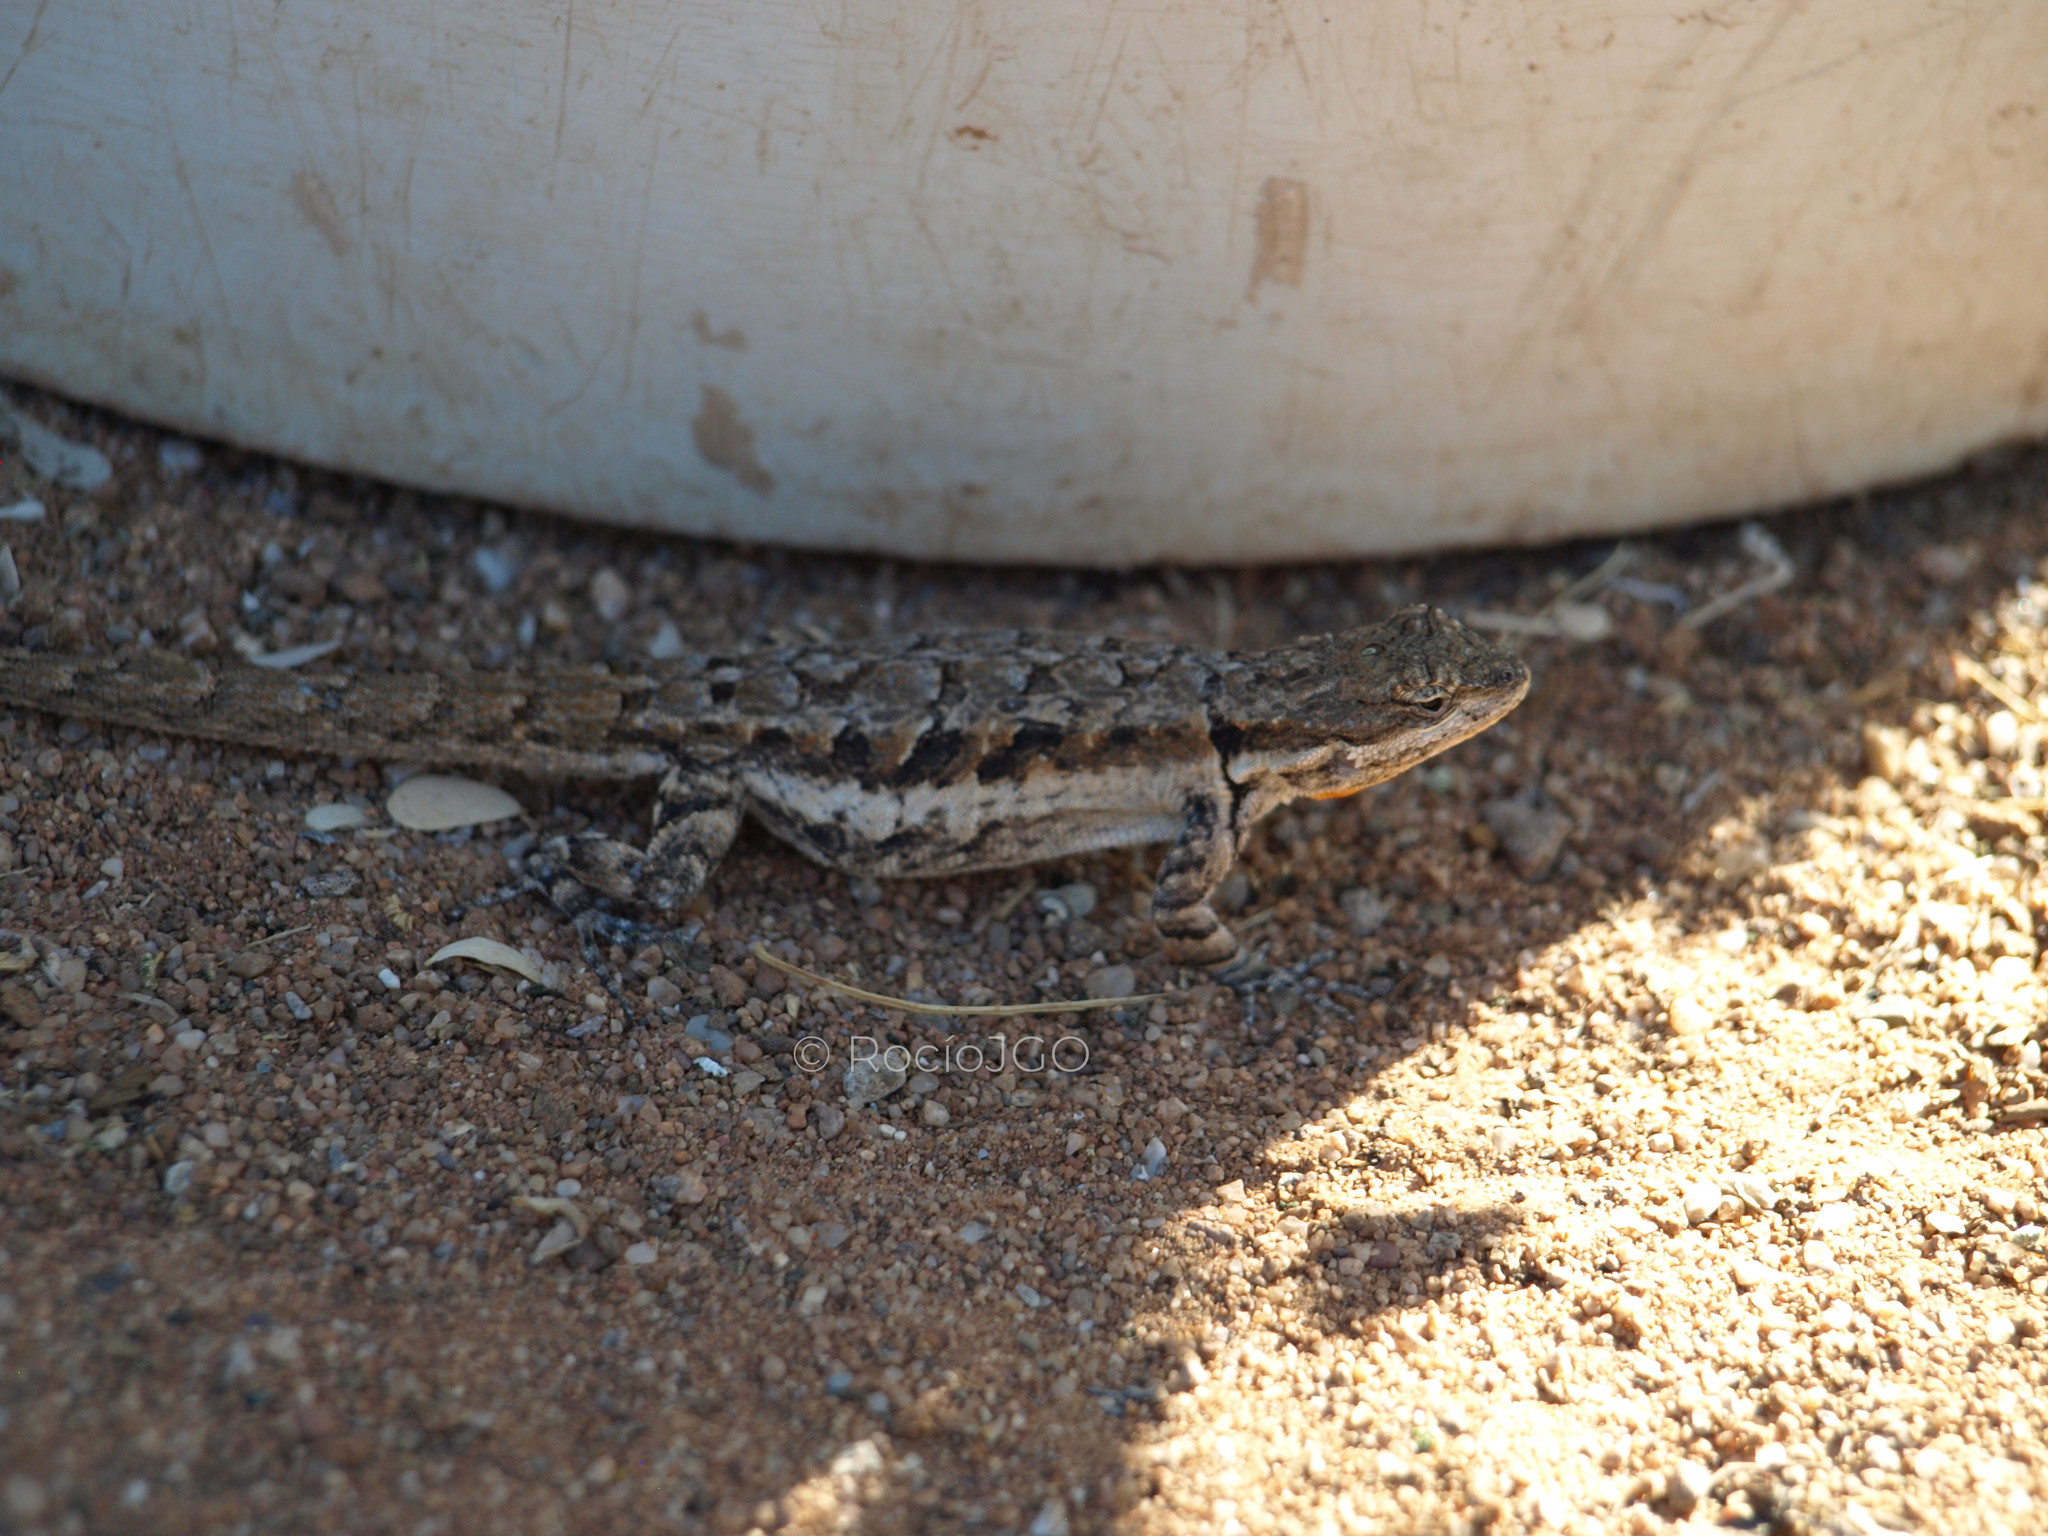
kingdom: Animalia
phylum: Chordata
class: Squamata
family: Phrynosomatidae
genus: Urosaurus
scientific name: Urosaurus ornatus
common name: Ornate tree lizard
